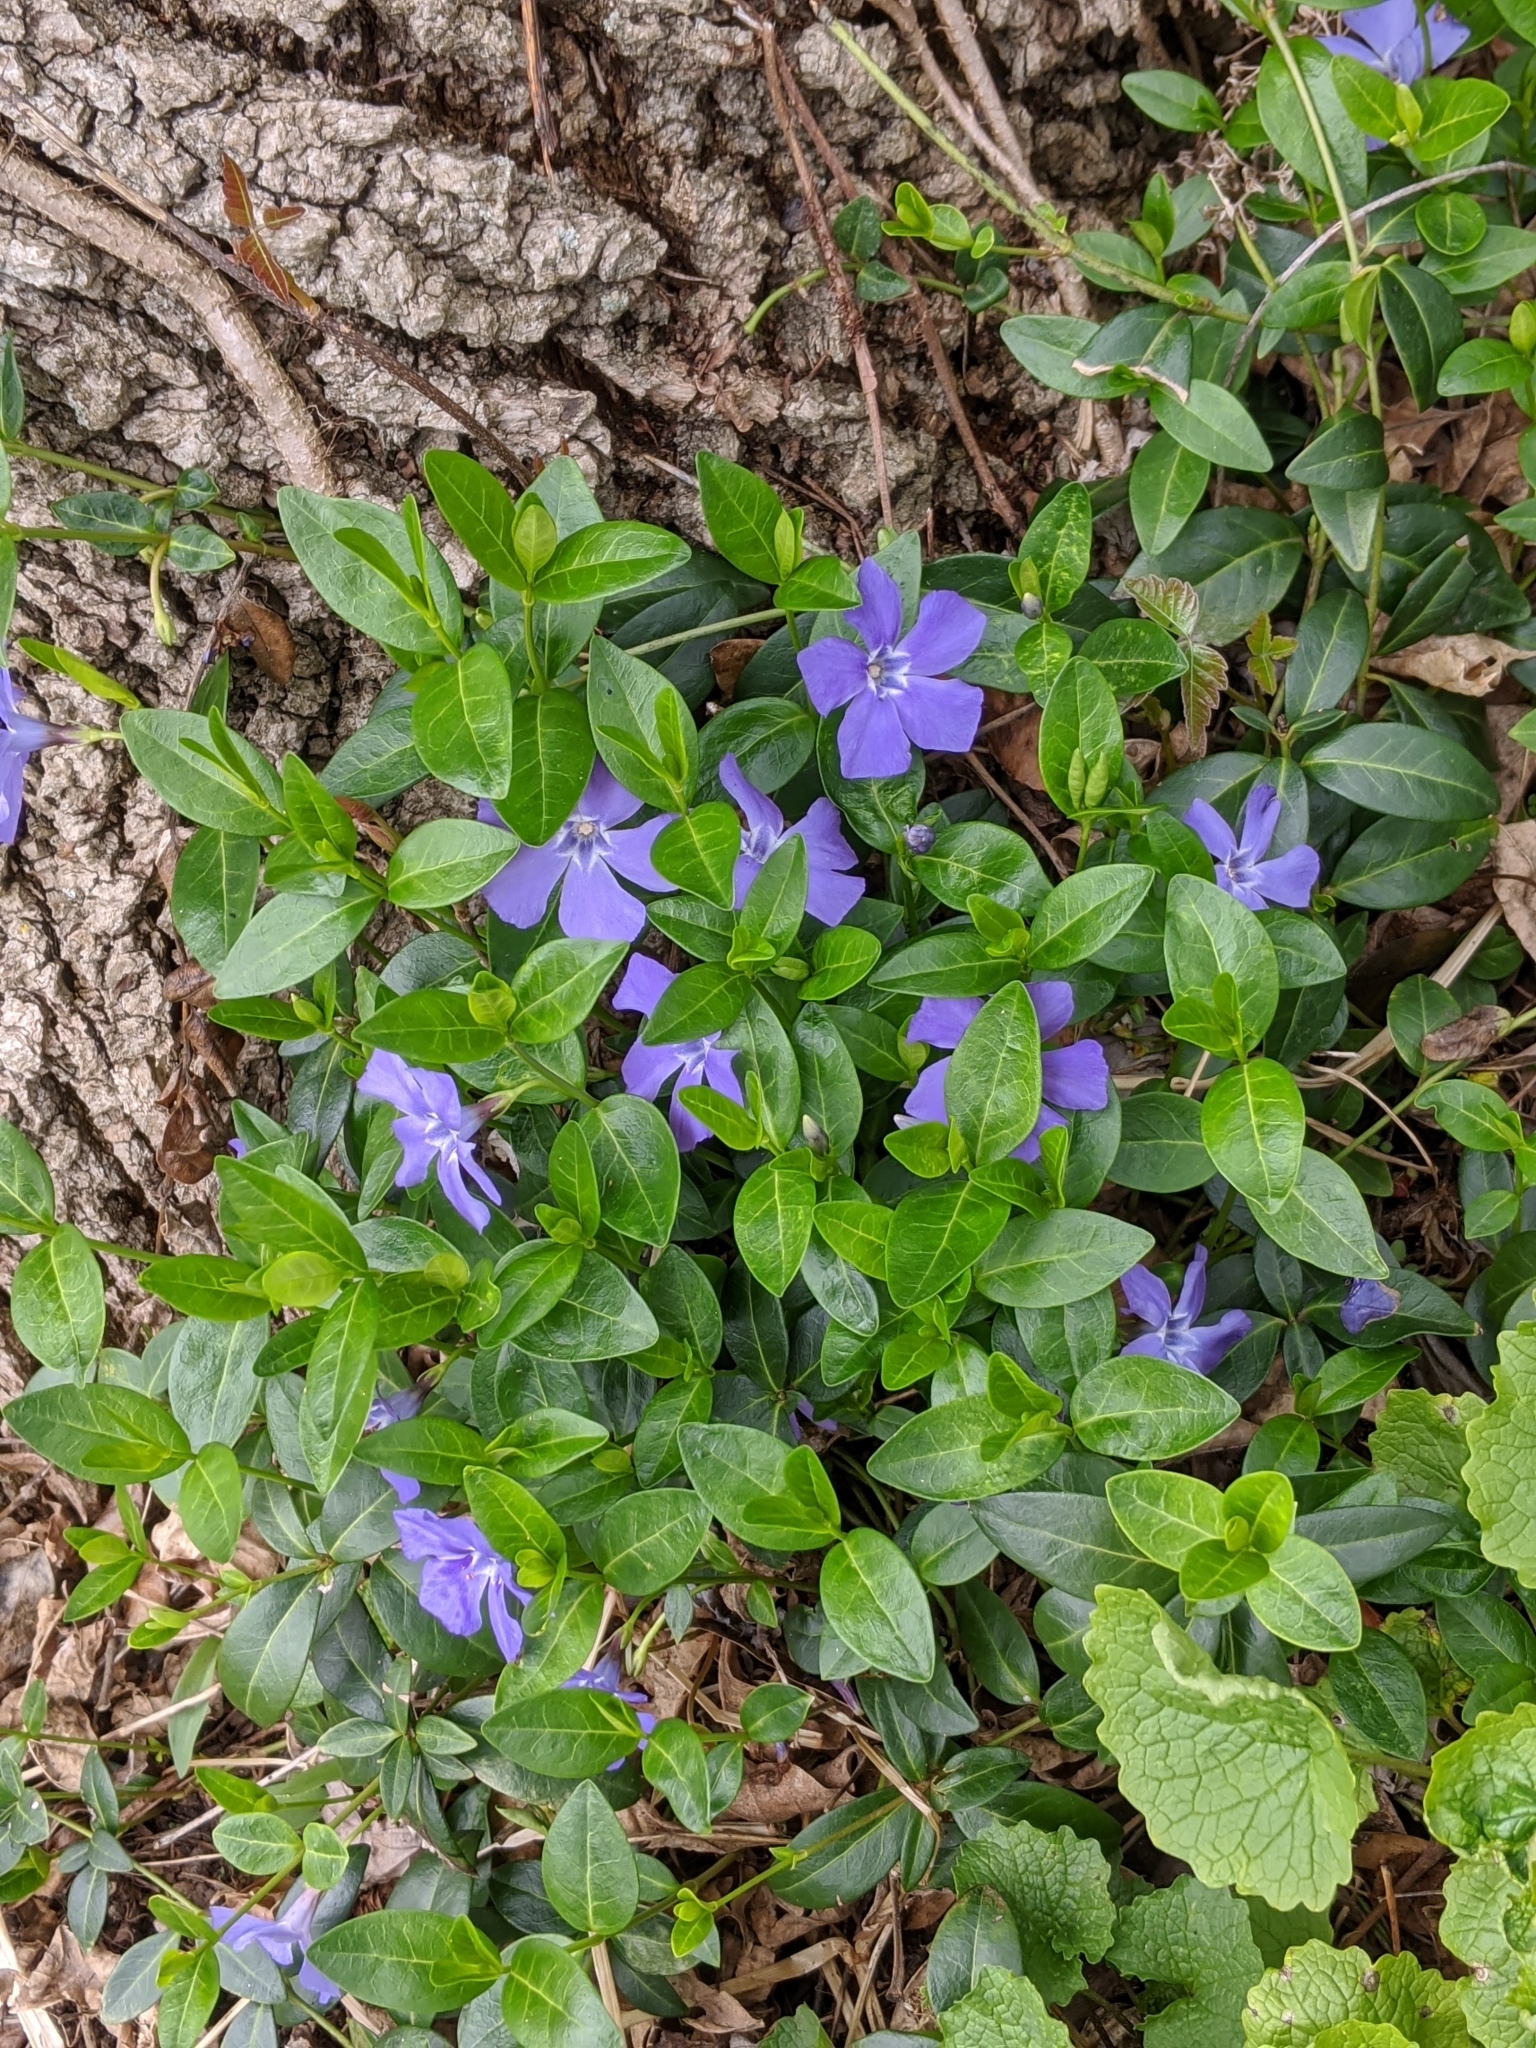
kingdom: Plantae
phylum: Tracheophyta
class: Magnoliopsida
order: Gentianales
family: Apocynaceae
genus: Vinca
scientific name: Vinca minor
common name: Lesser periwinkle
